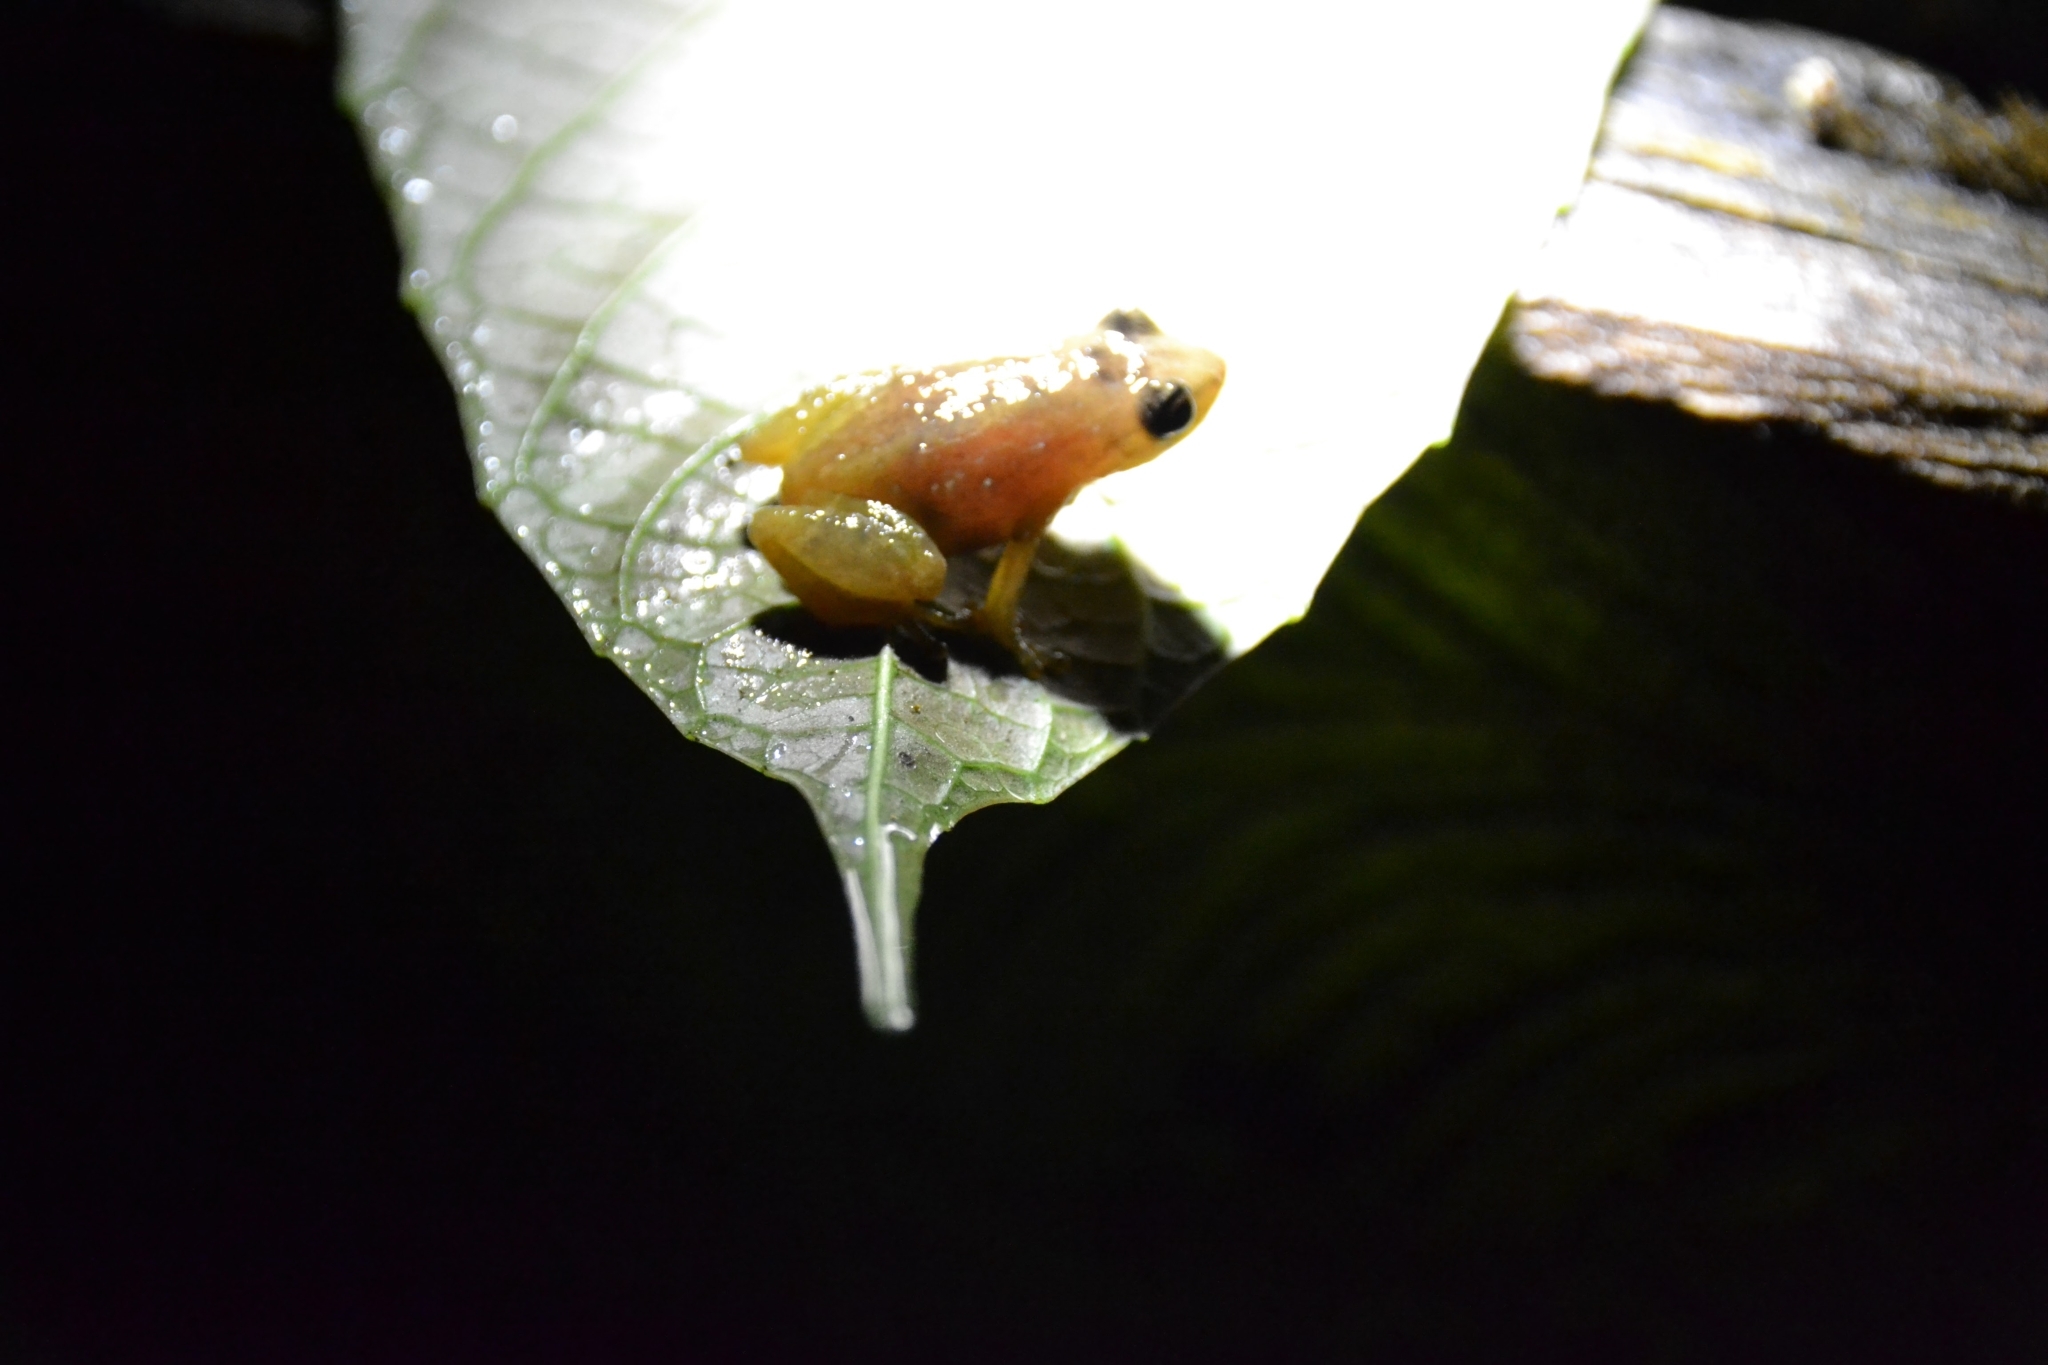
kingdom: Animalia
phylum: Chordata
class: Amphibia
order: Anura
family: Eleutherodactylidae
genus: Diasporus
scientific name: Diasporus diastema
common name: Caretta robber frog
